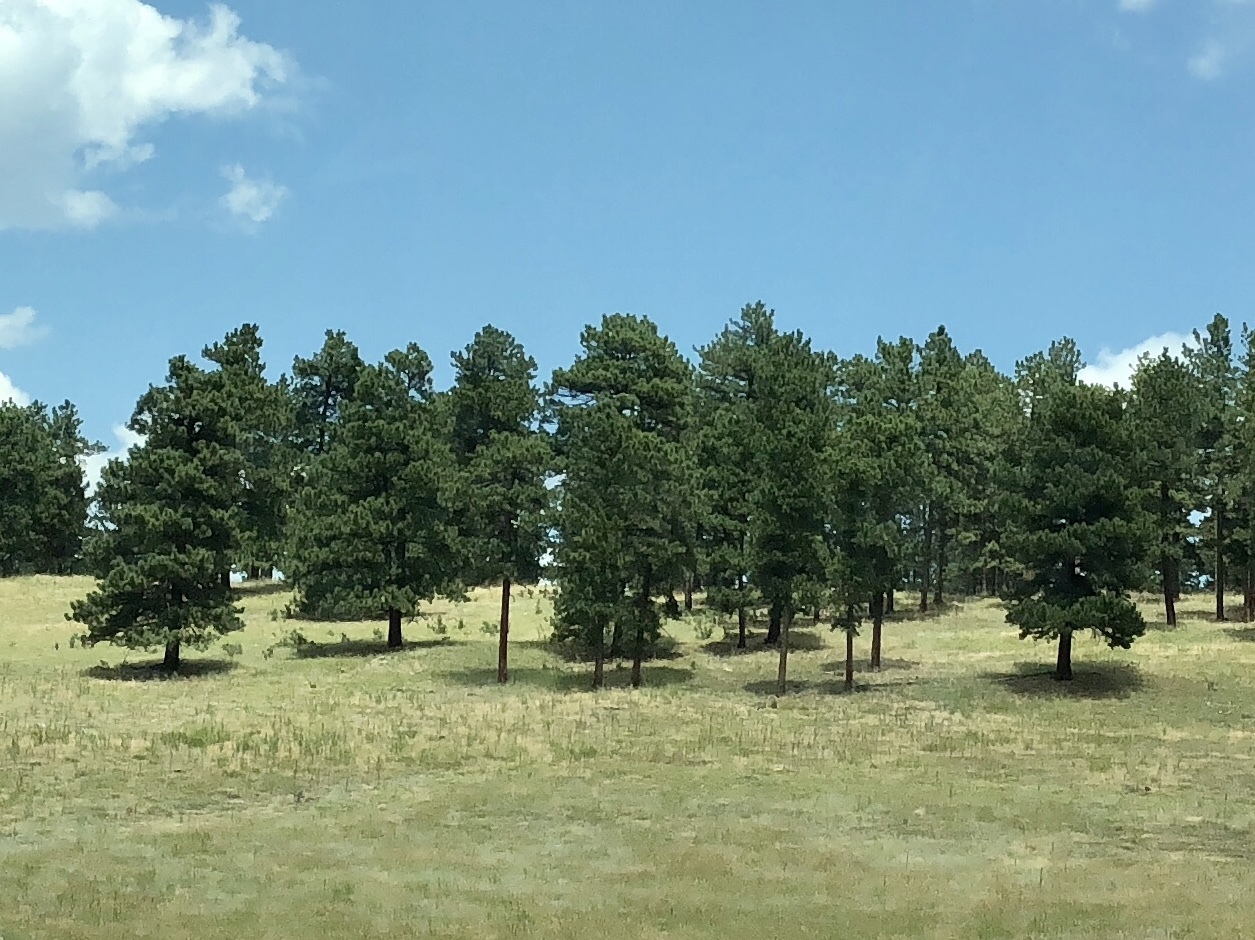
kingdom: Plantae
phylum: Tracheophyta
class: Pinopsida
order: Pinales
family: Pinaceae
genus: Pinus
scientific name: Pinus ponderosa
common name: Western yellow-pine
